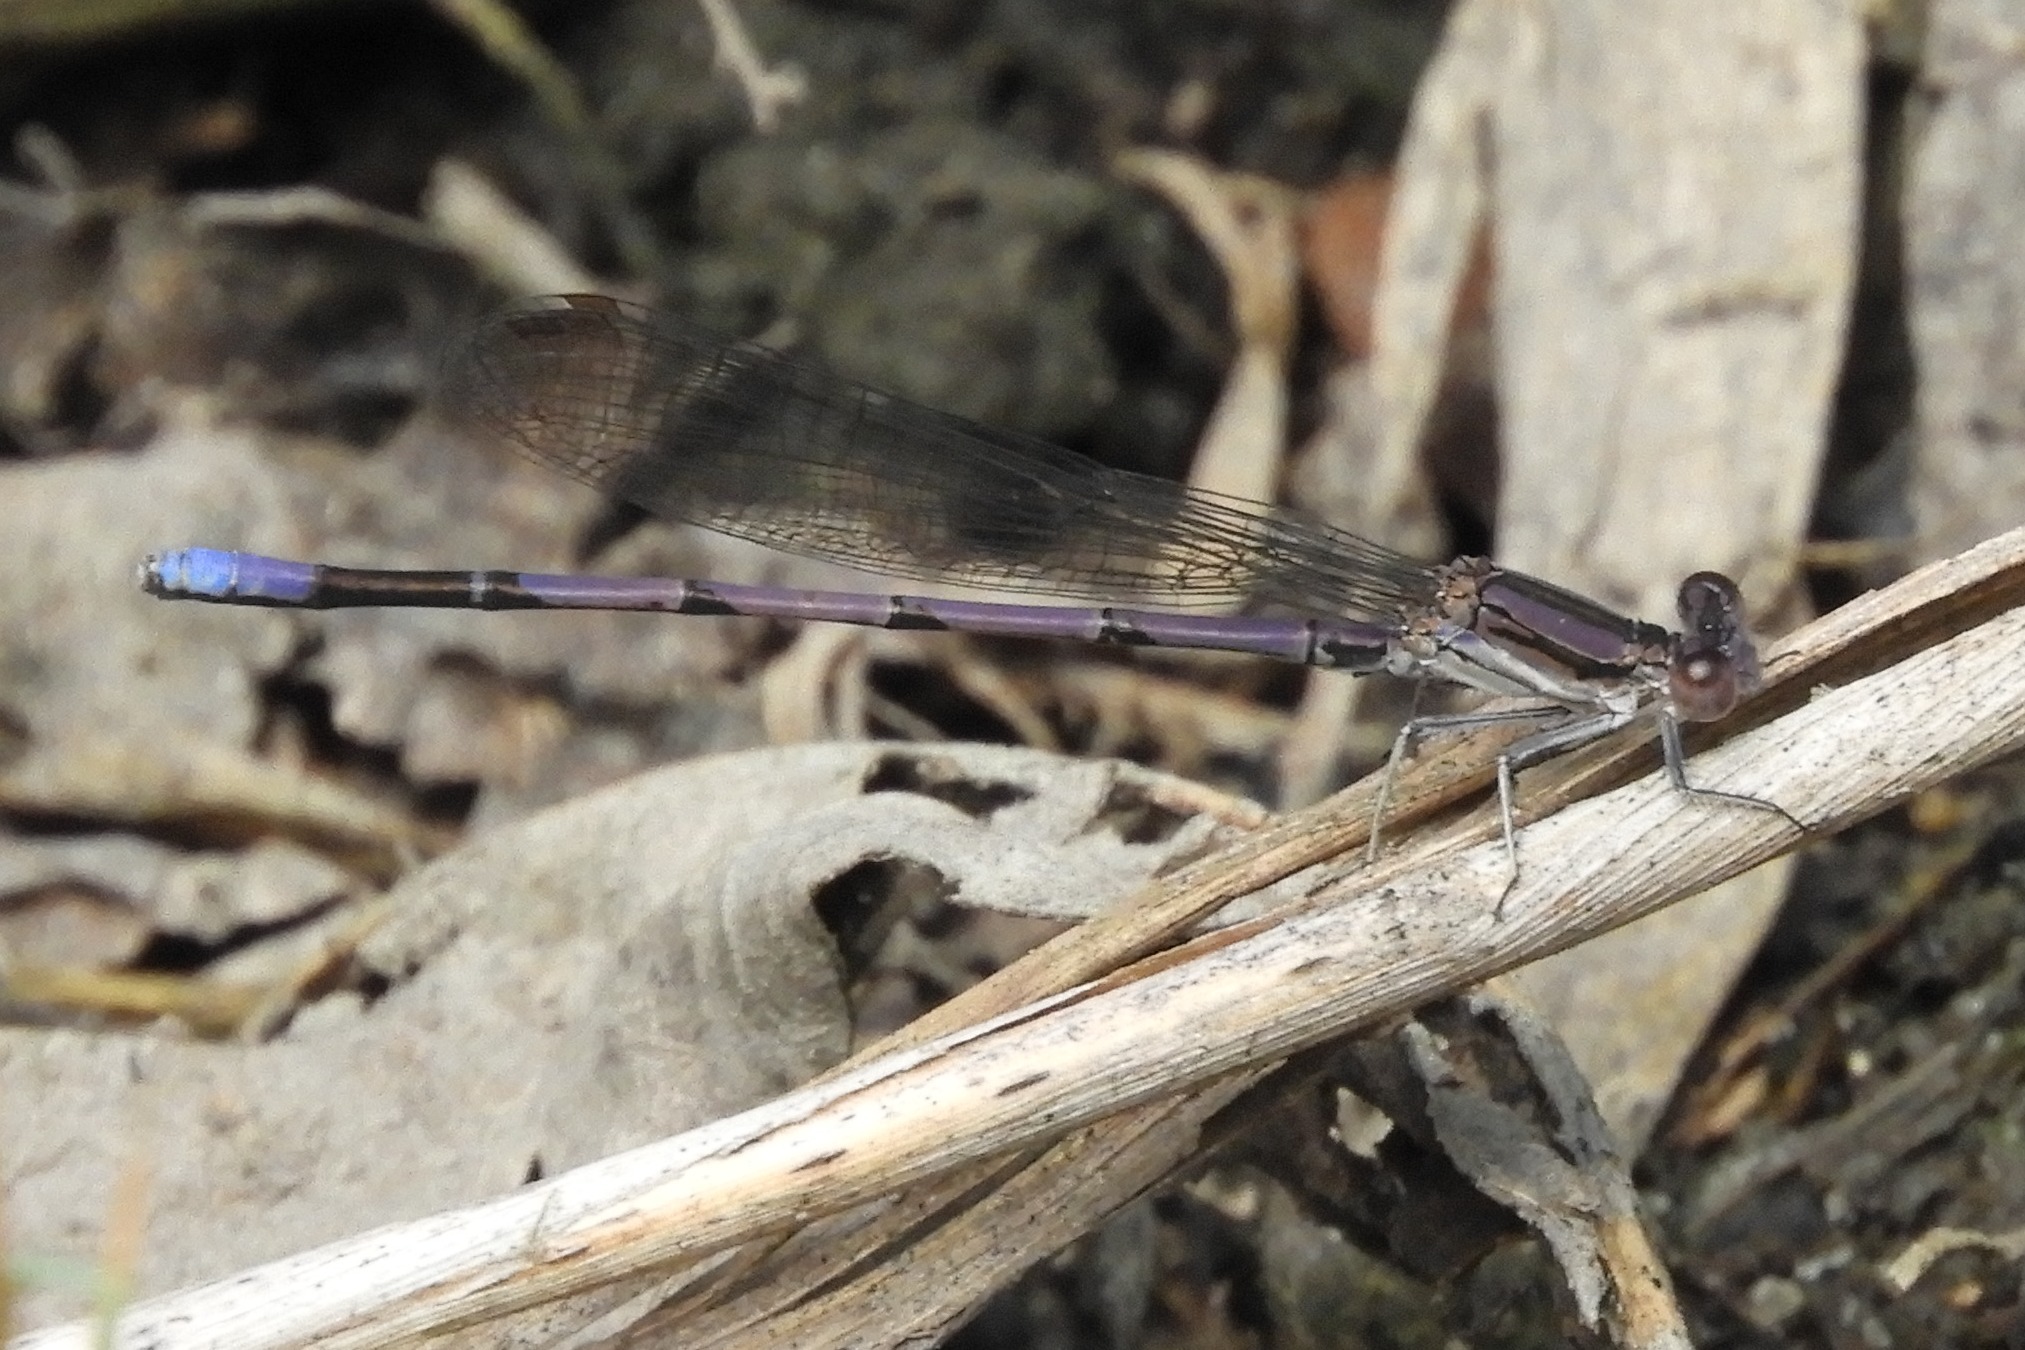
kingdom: Animalia
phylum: Arthropoda
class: Insecta
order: Odonata
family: Coenagrionidae
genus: Argia
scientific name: Argia fumipennis
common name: Variable dancer
